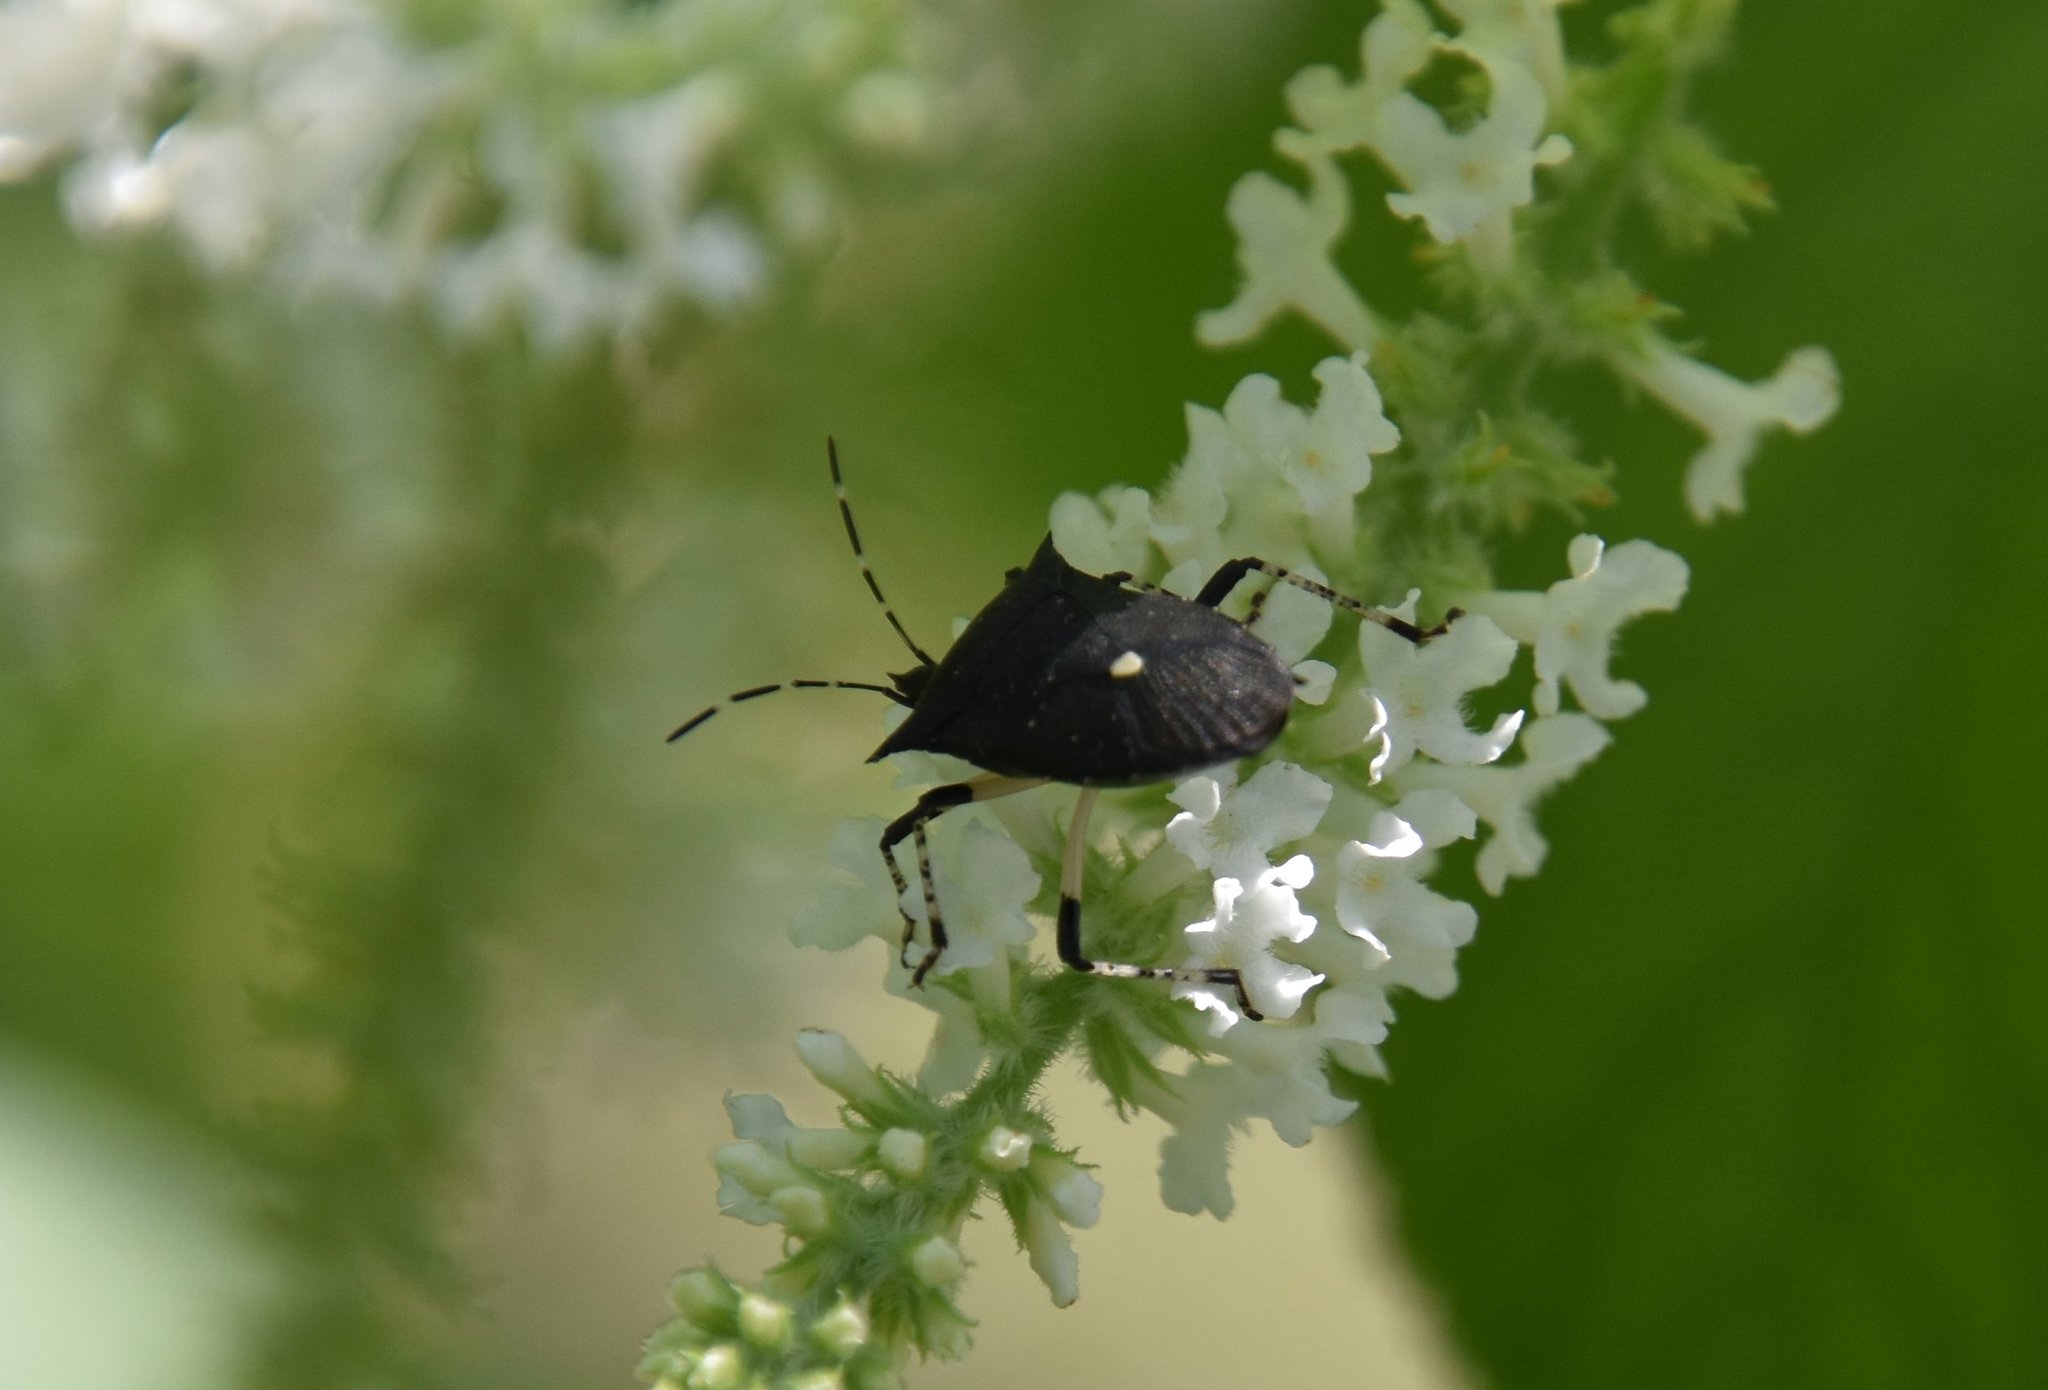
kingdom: Animalia
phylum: Arthropoda
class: Insecta
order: Hemiptera
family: Pentatomidae
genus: Proxys
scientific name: Proxys punctulatus
